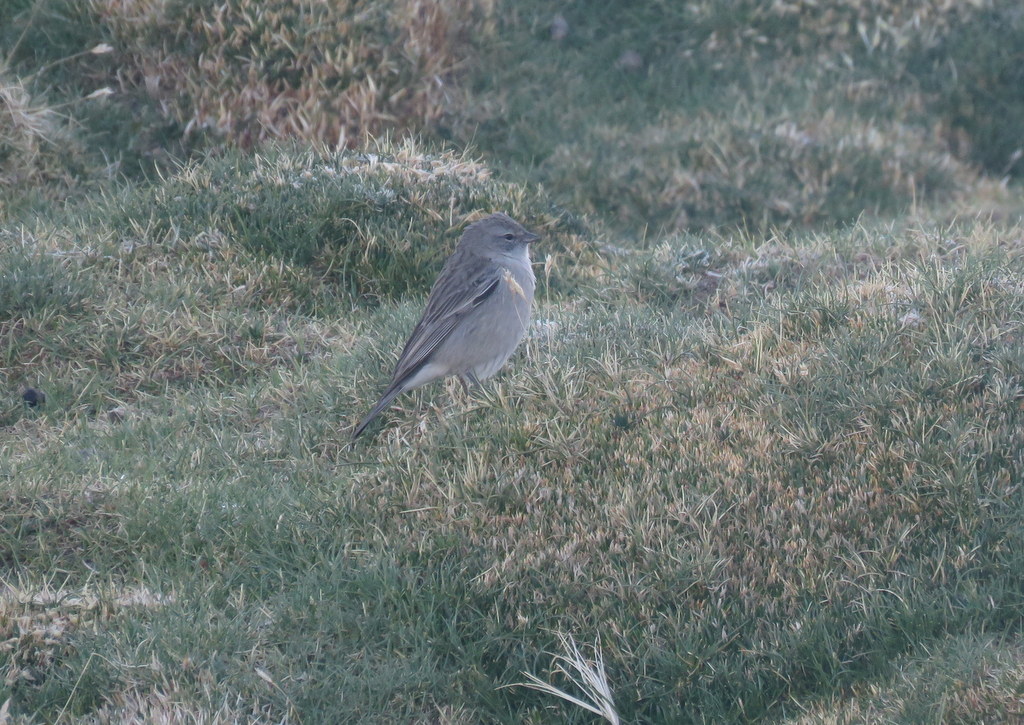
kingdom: Animalia
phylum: Chordata
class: Aves
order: Passeriformes
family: Thraupidae
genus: Geospizopsis
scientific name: Geospizopsis plebejus
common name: Ash-breasted sierra-finch
